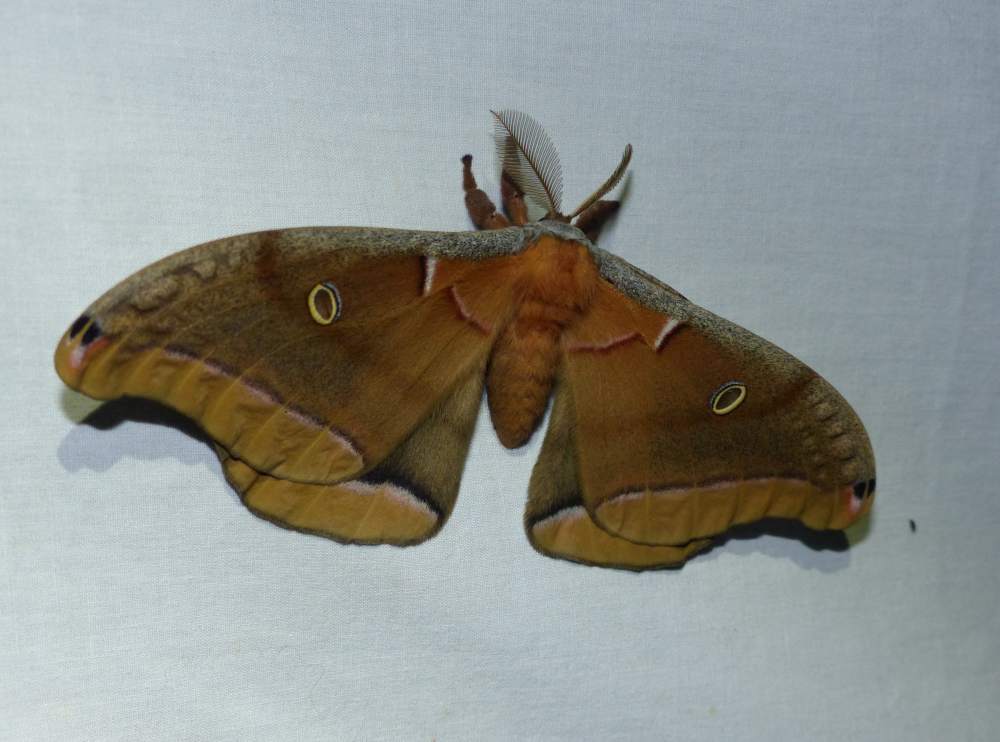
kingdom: Animalia
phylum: Arthropoda
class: Insecta
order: Lepidoptera
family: Saturniidae
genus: Antheraea
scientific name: Antheraea polyphemus
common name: Polyphemus moth
